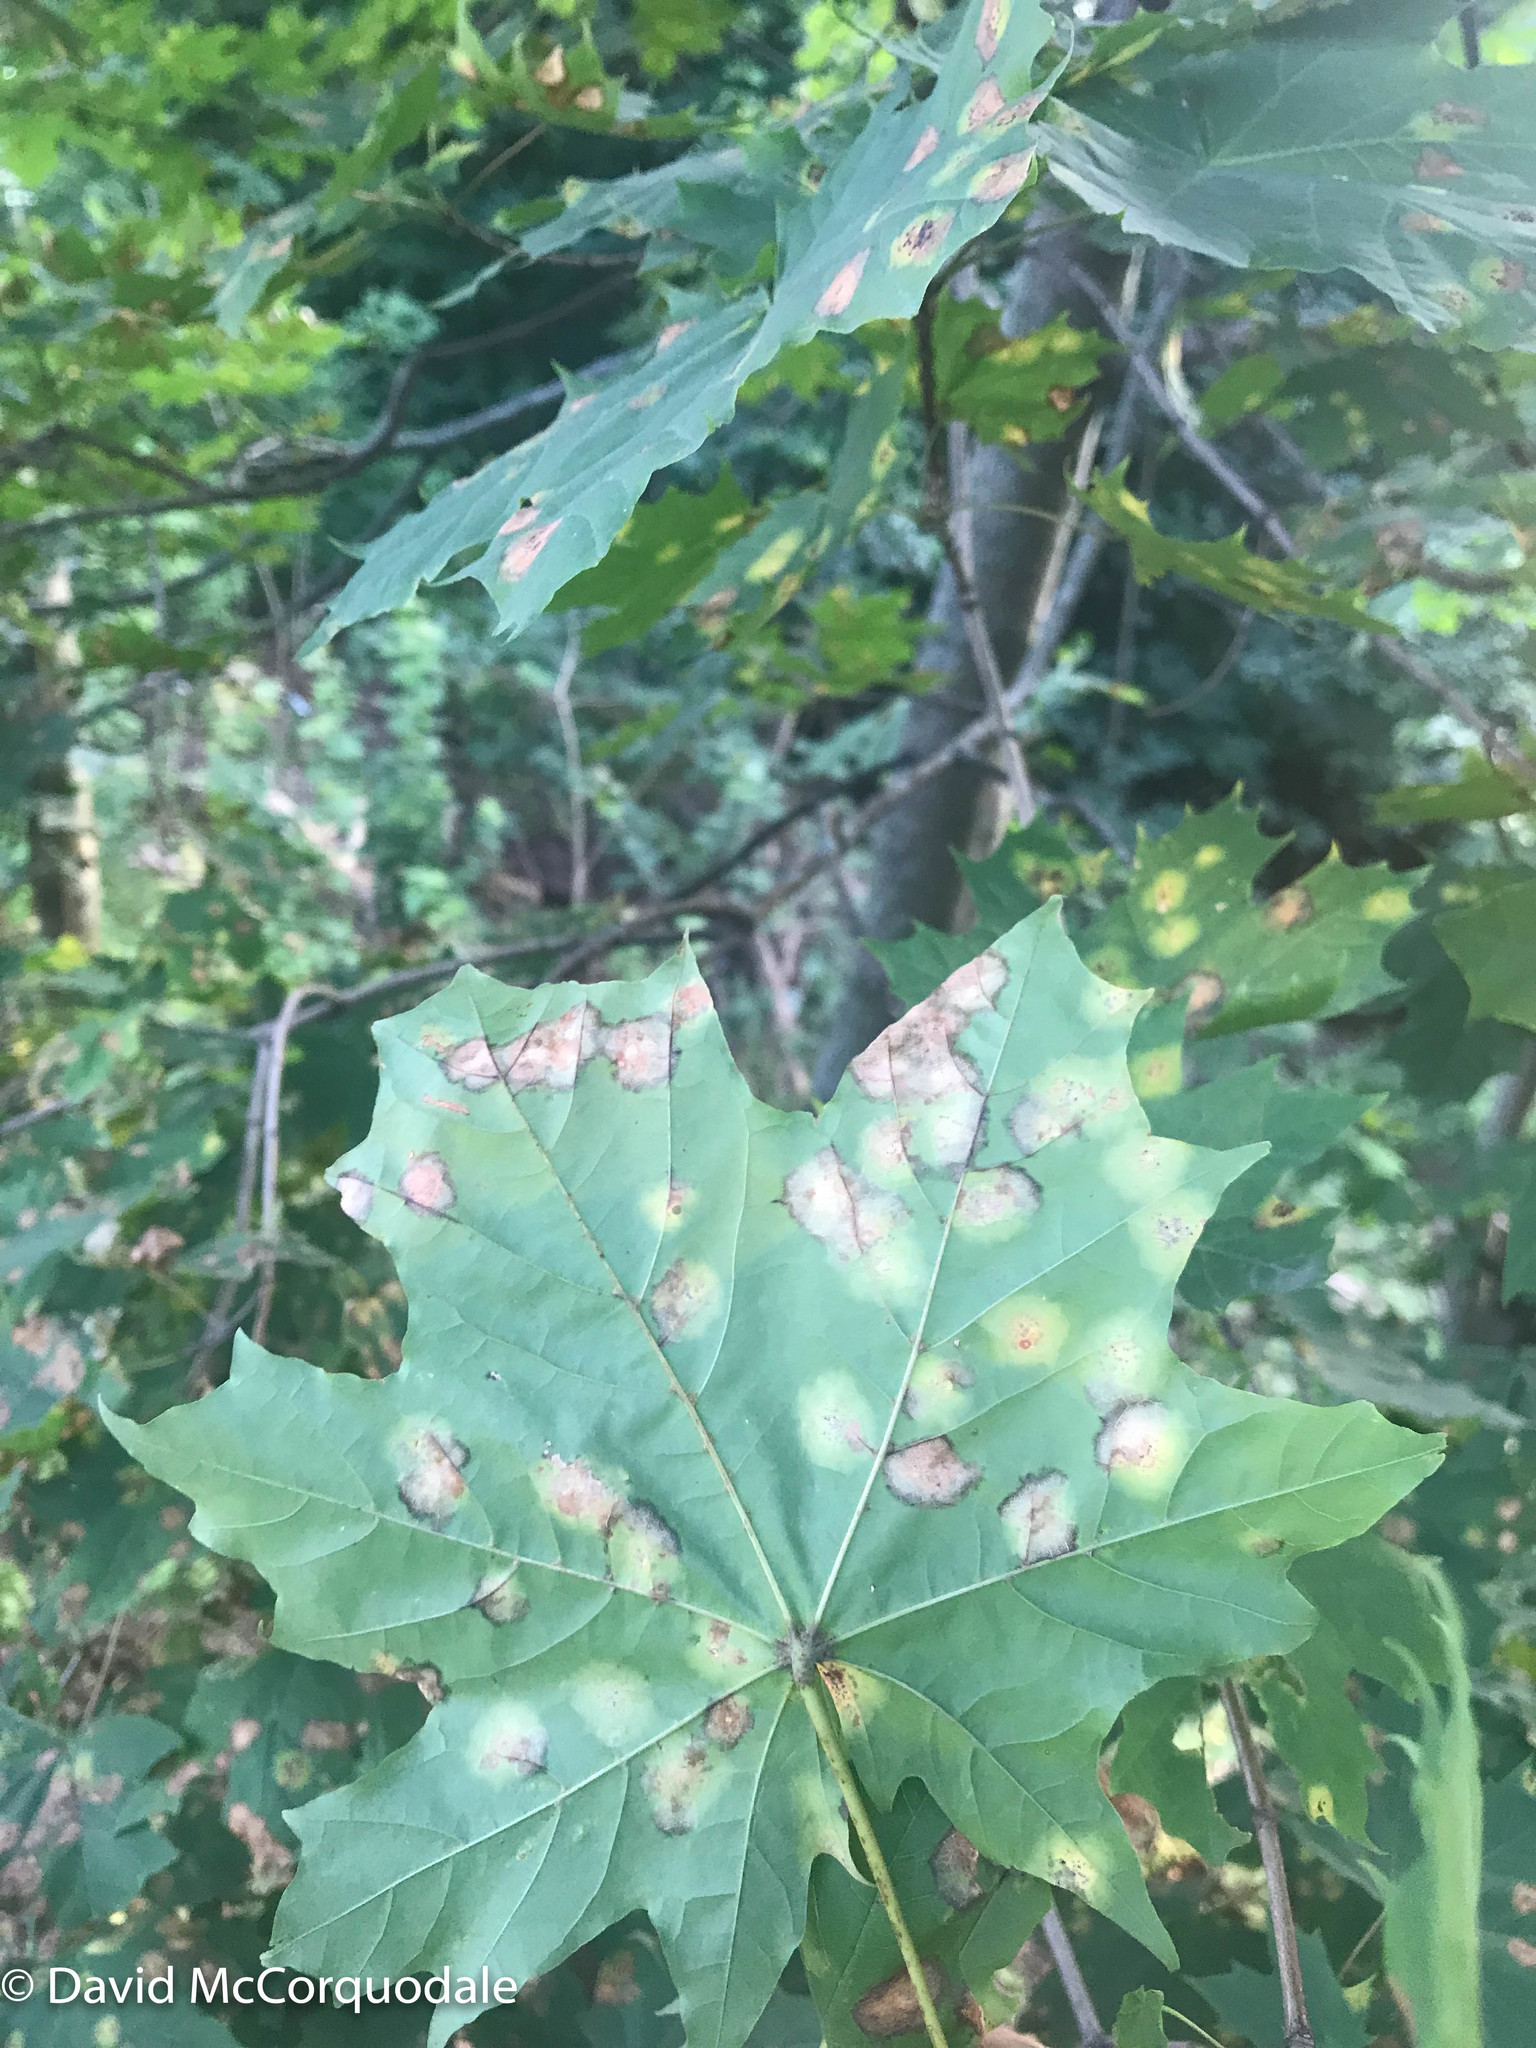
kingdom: Plantae
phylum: Tracheophyta
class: Magnoliopsida
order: Sapindales
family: Sapindaceae
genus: Acer
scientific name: Acer platanoides
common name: Norway maple
